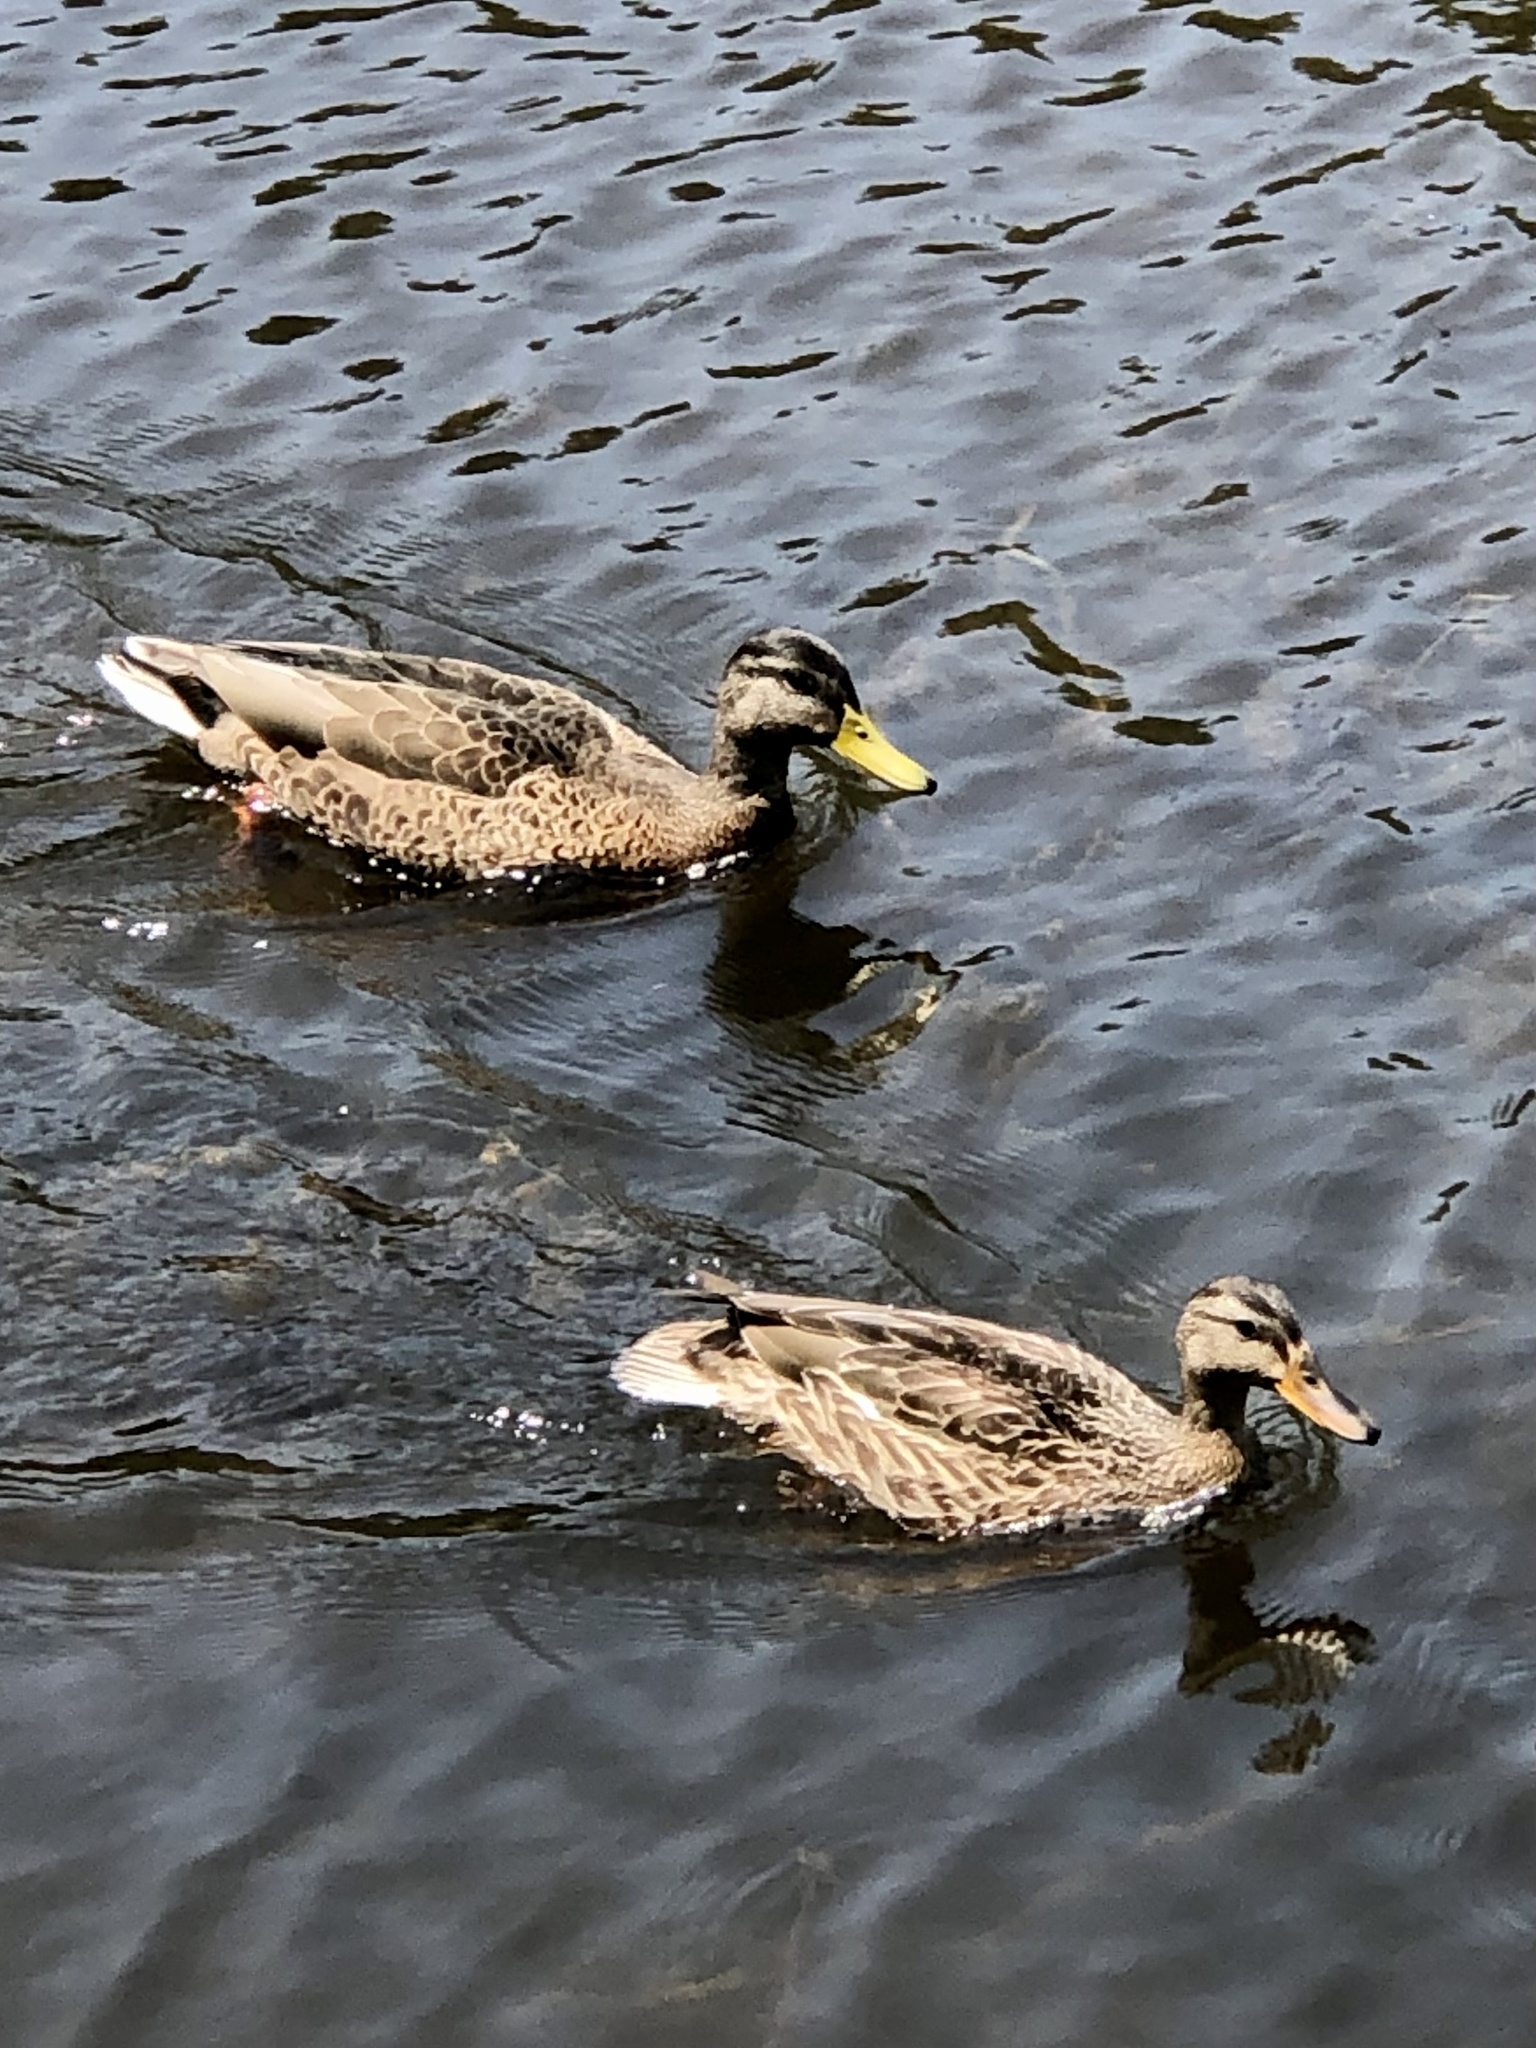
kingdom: Animalia
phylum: Chordata
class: Aves
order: Anseriformes
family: Anatidae
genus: Anas
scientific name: Anas platyrhynchos
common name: Mallard
